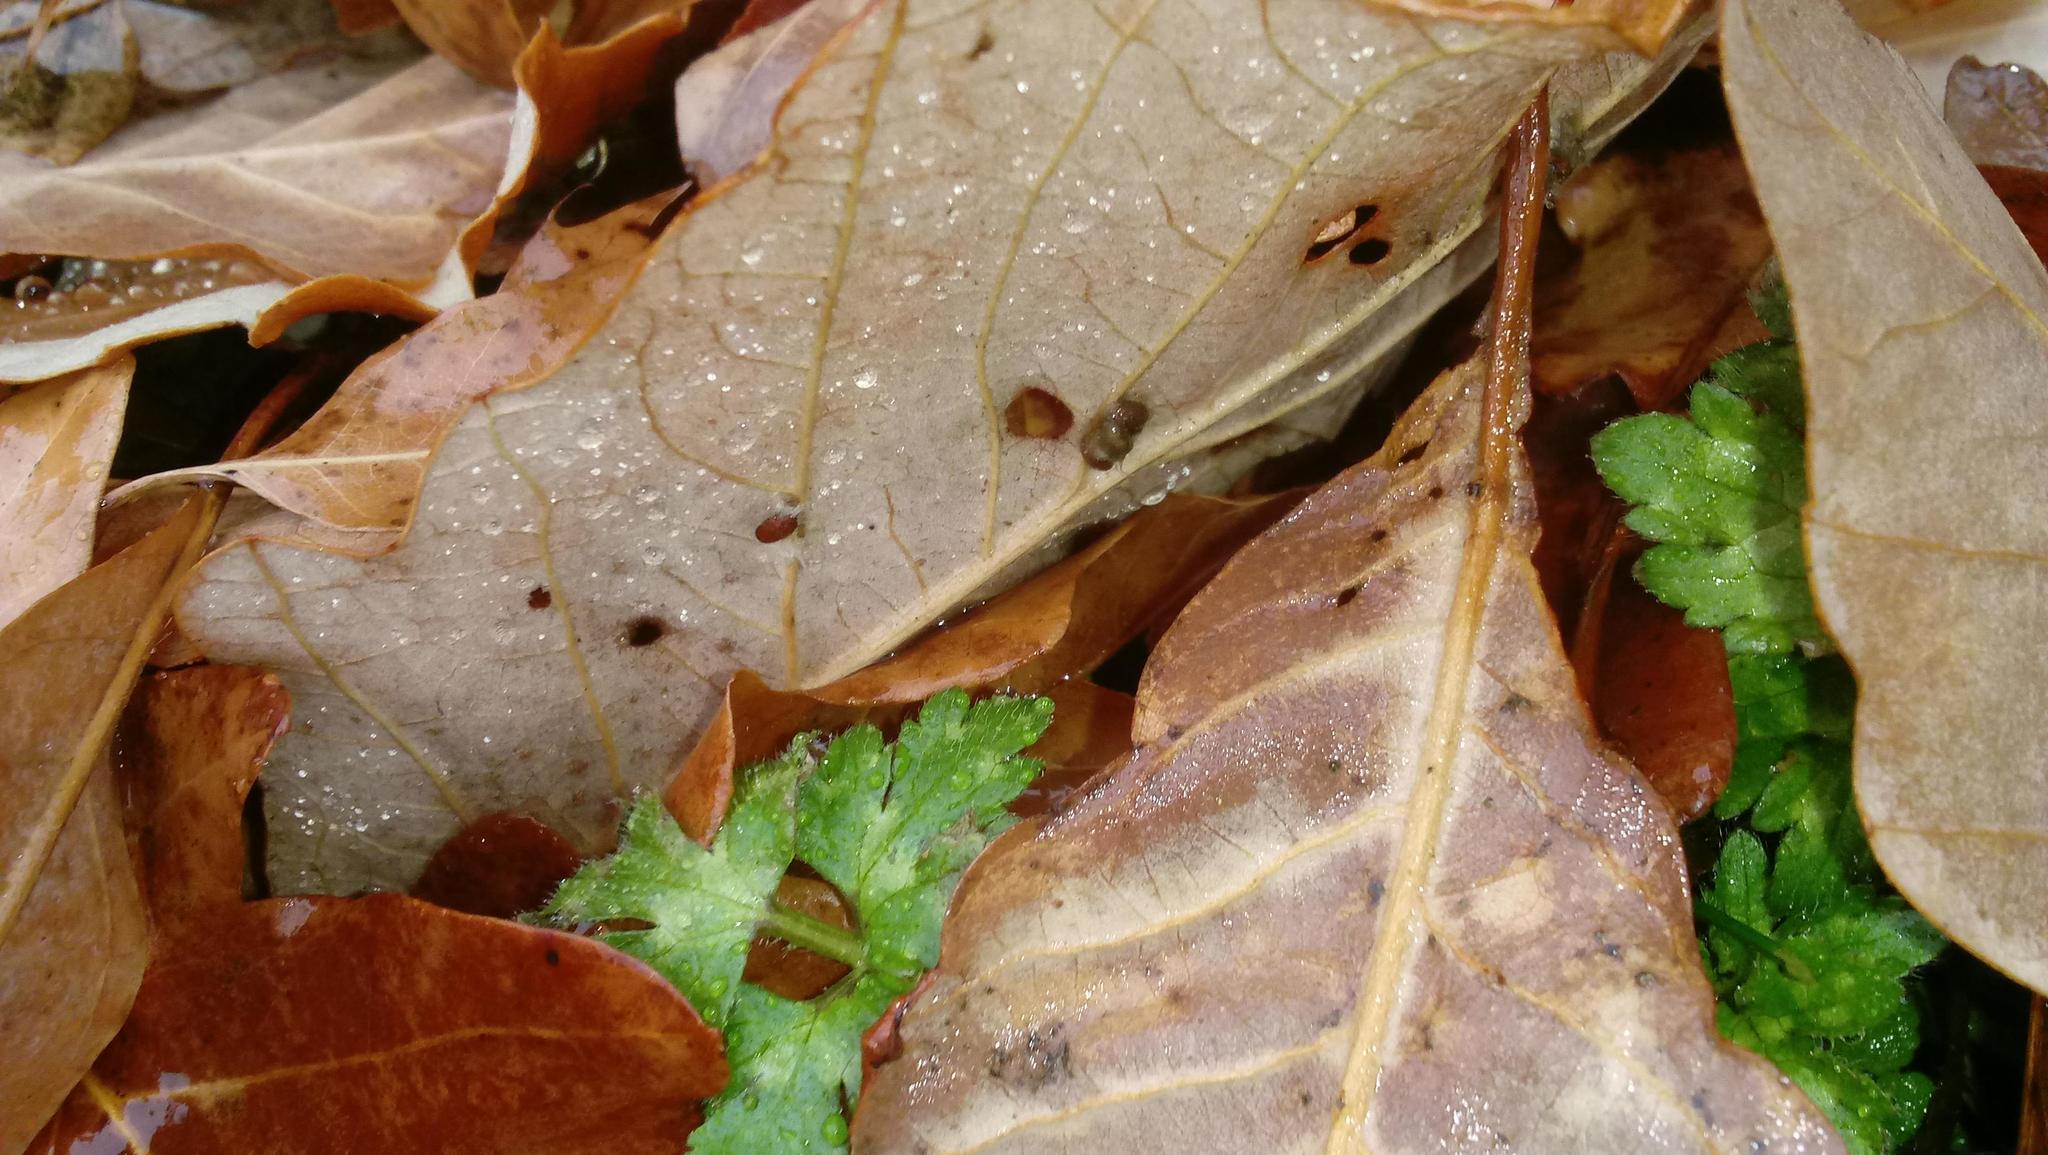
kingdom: Animalia
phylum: Arthropoda
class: Insecta
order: Hymenoptera
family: Cynipidae
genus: Andricus
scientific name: Andricus Druon ignotum
